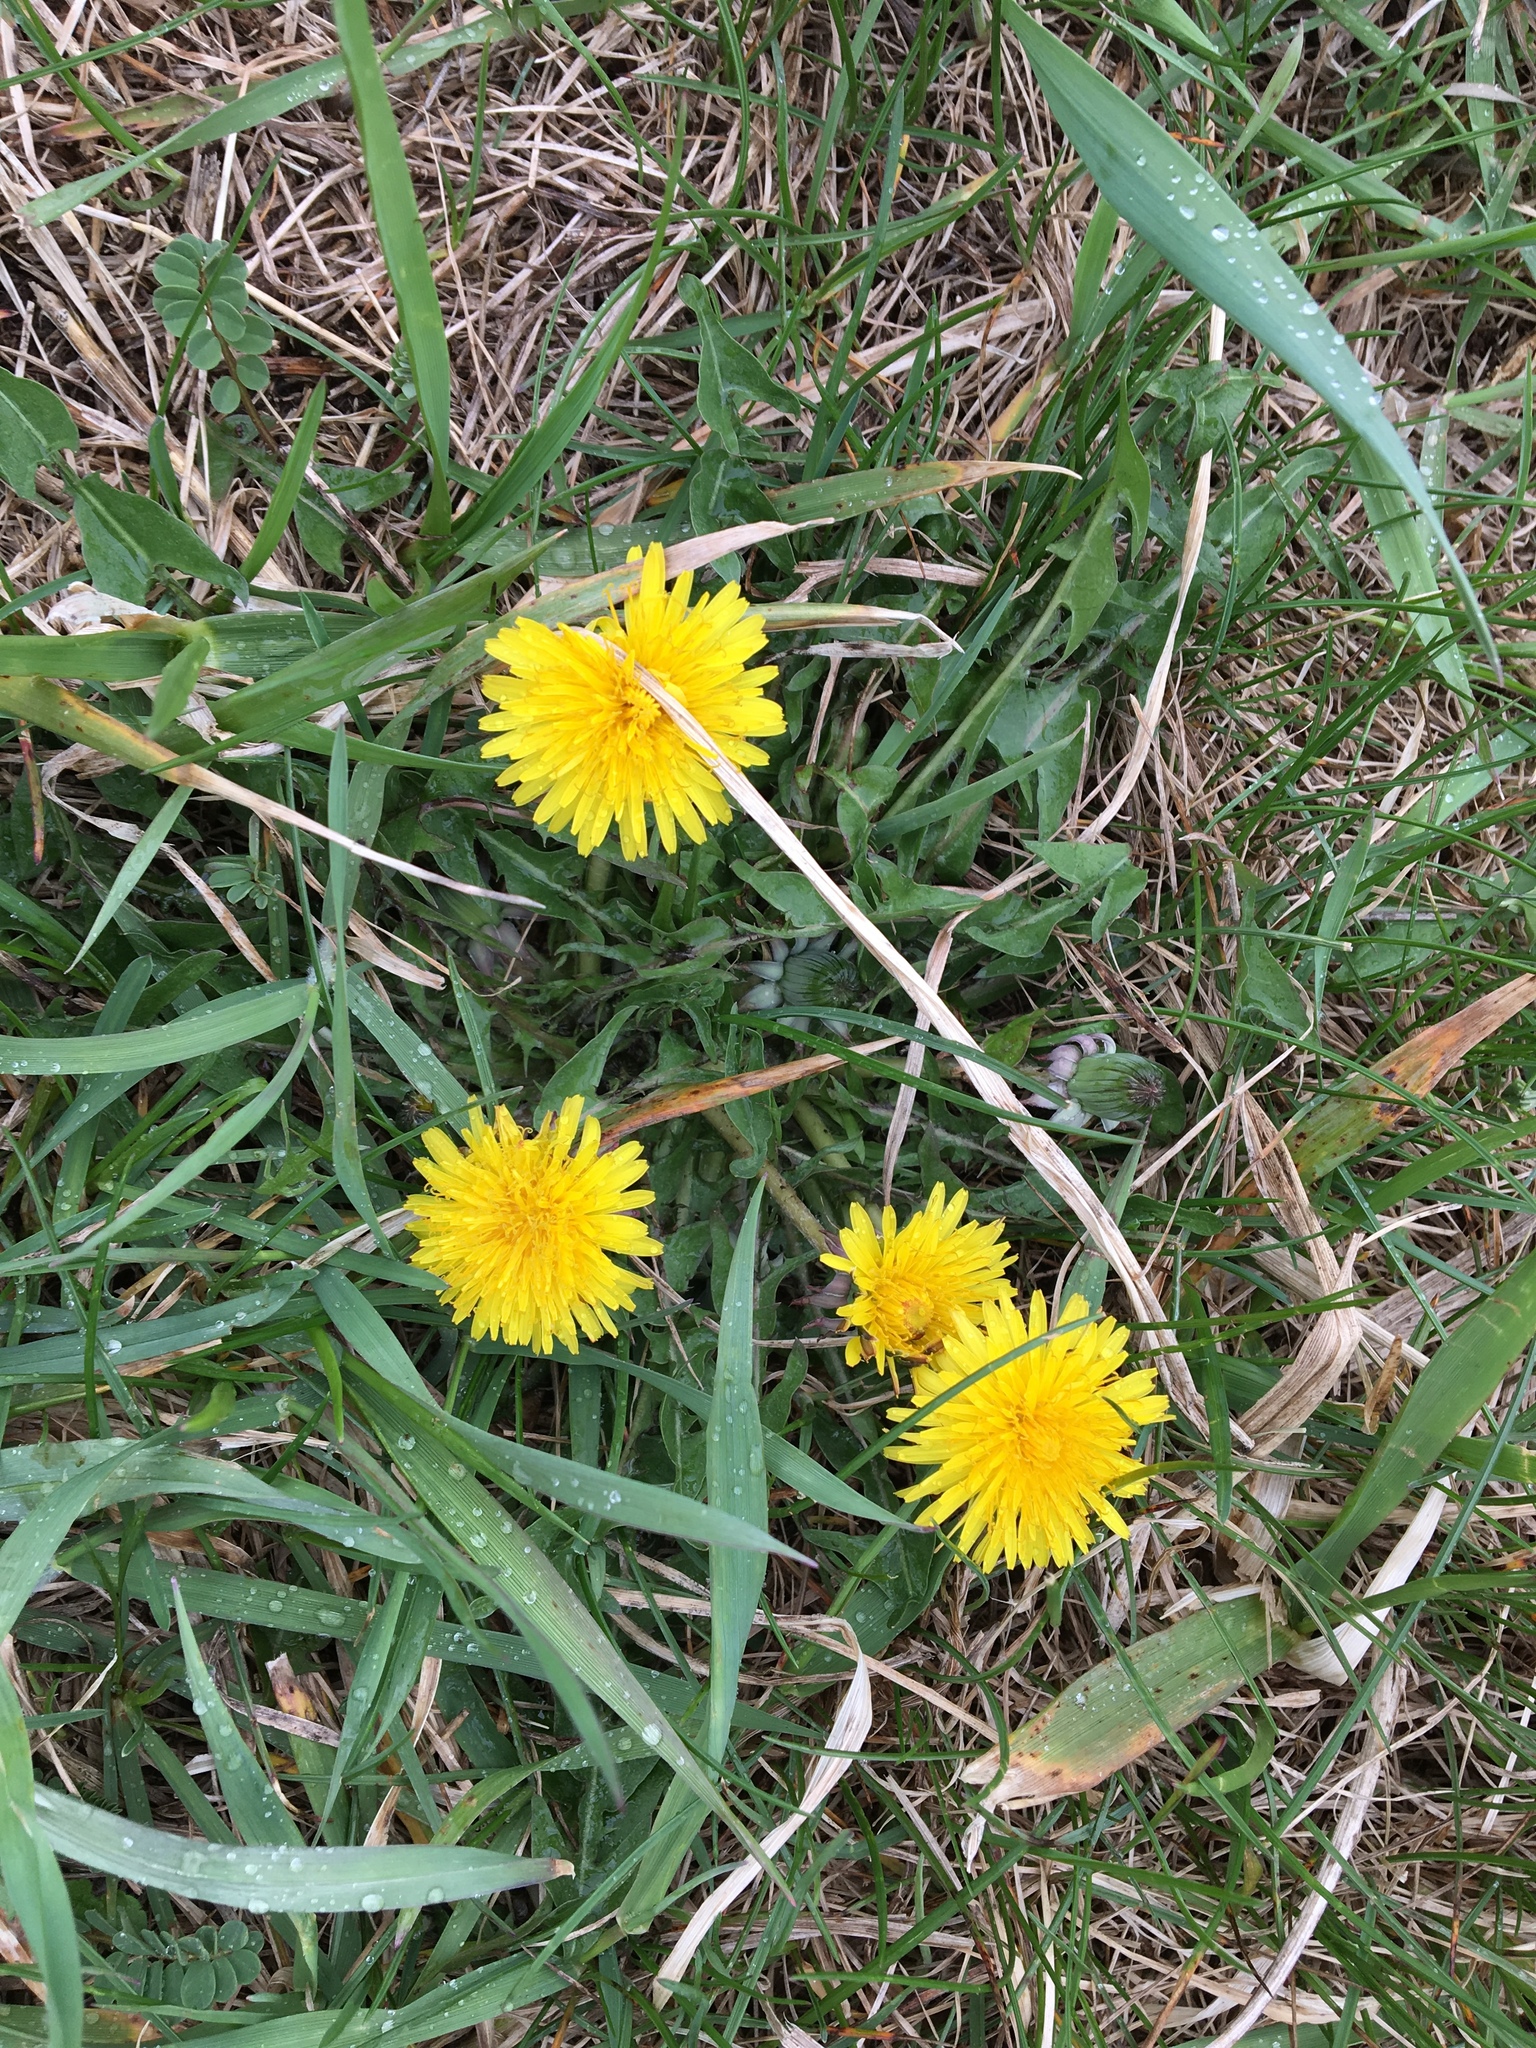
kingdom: Plantae
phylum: Tracheophyta
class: Magnoliopsida
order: Asterales
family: Asteraceae
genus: Taraxacum
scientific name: Taraxacum officinale
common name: Common dandelion
